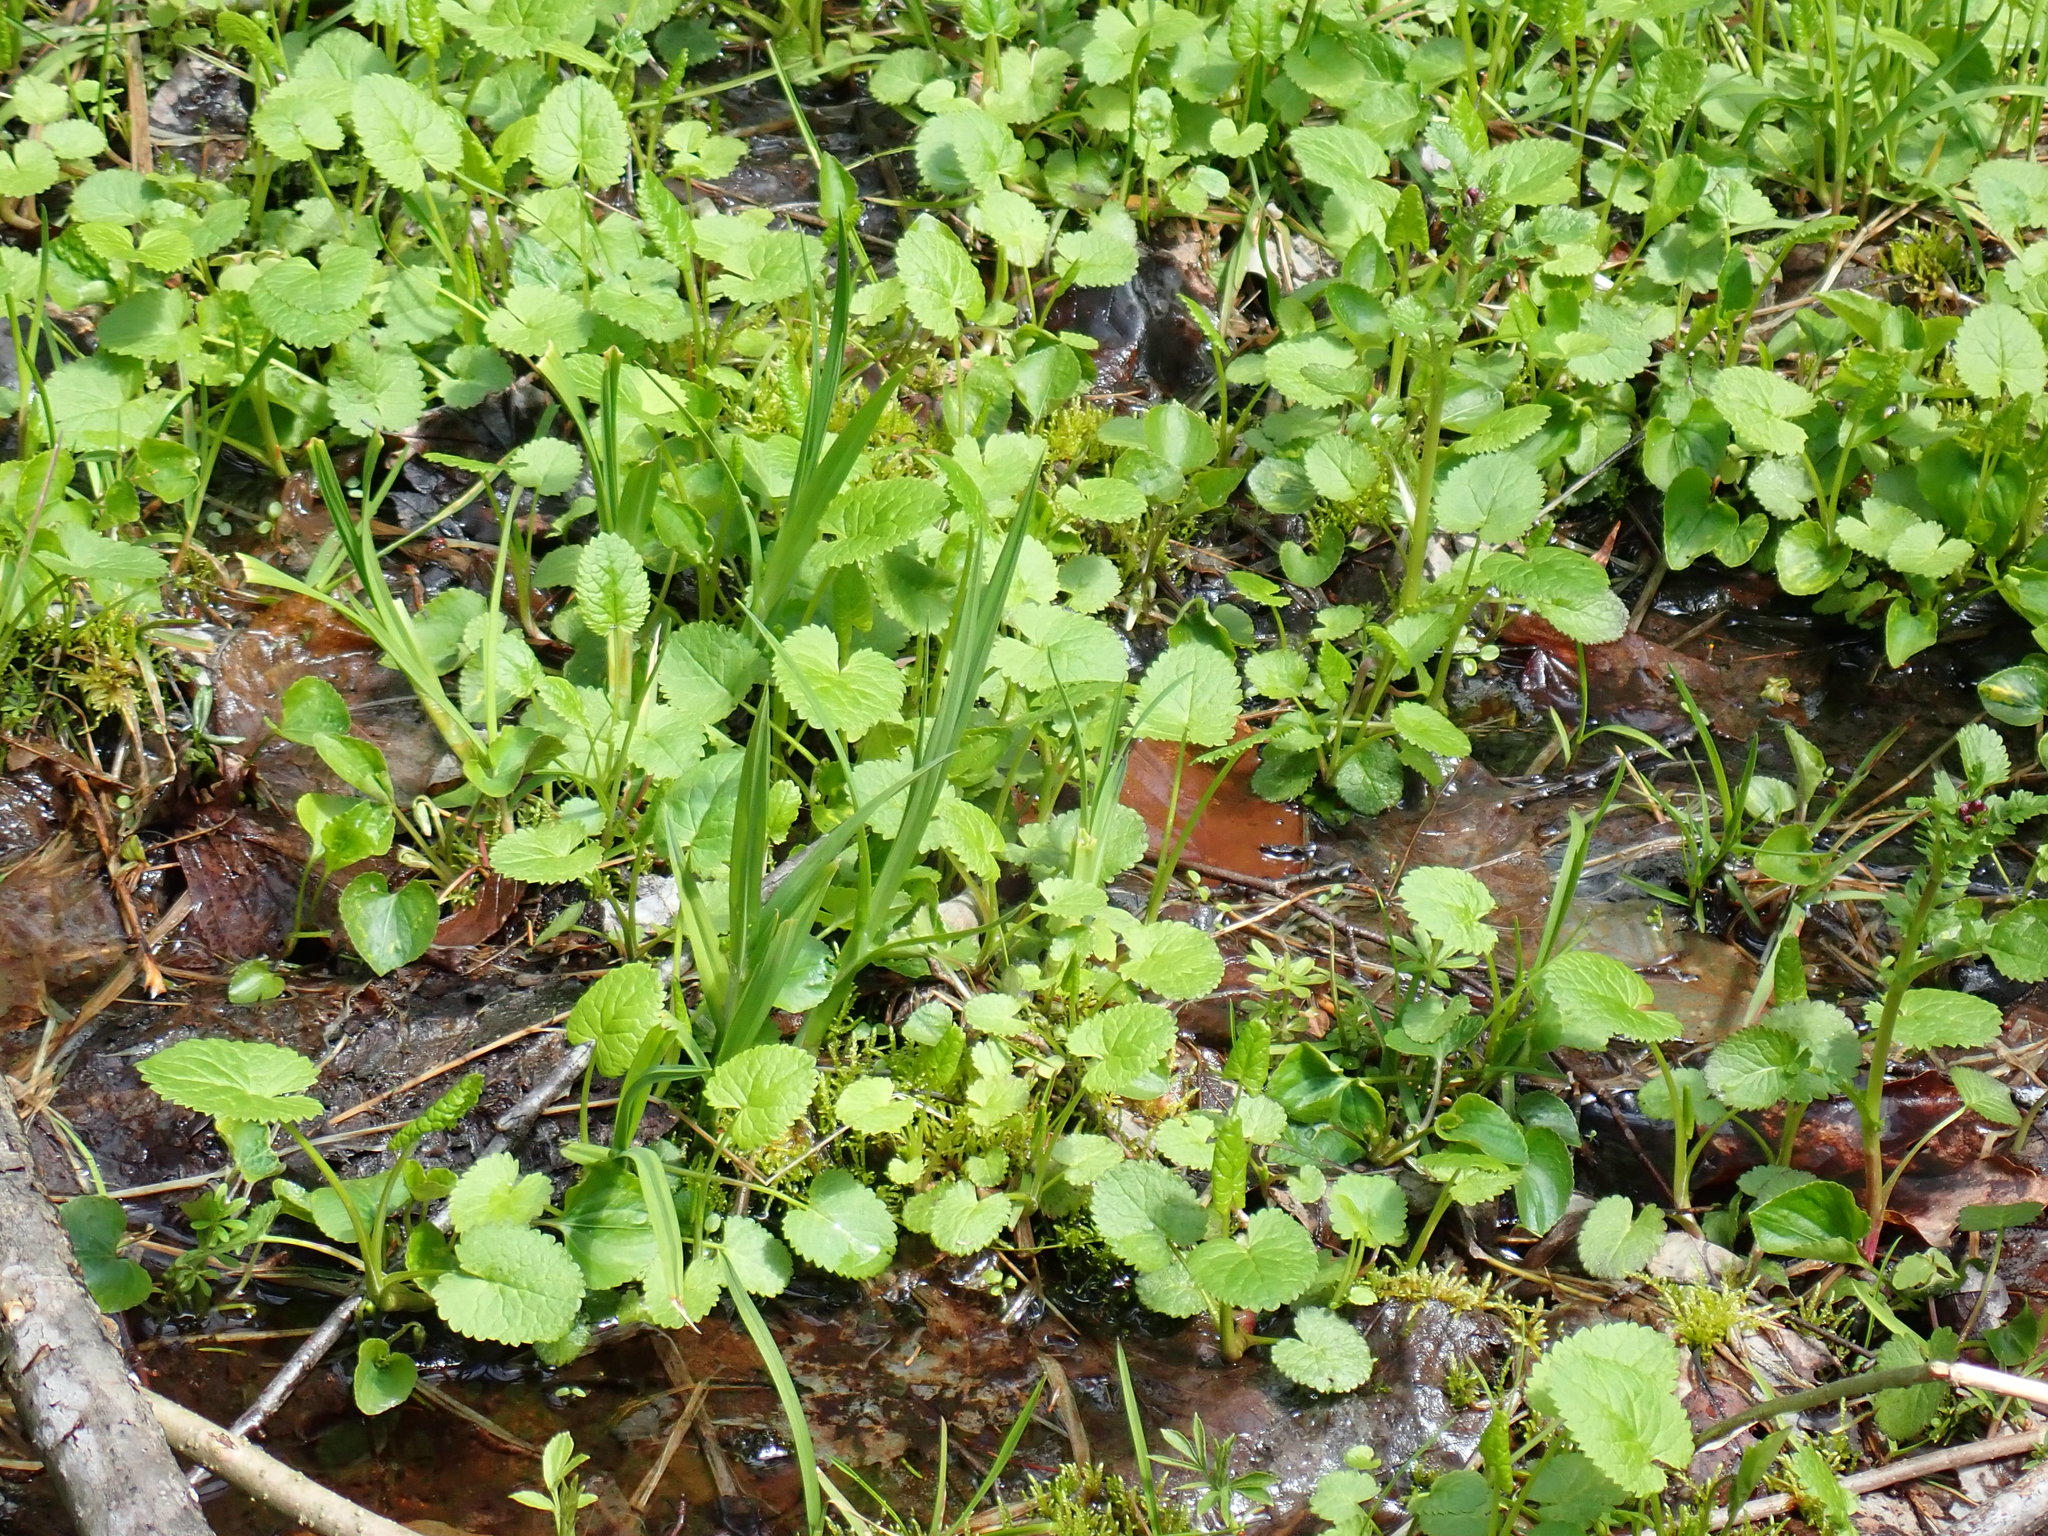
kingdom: Plantae
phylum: Tracheophyta
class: Magnoliopsida
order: Asterales
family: Asteraceae
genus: Packera
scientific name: Packera aurea
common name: Golden groundsel
